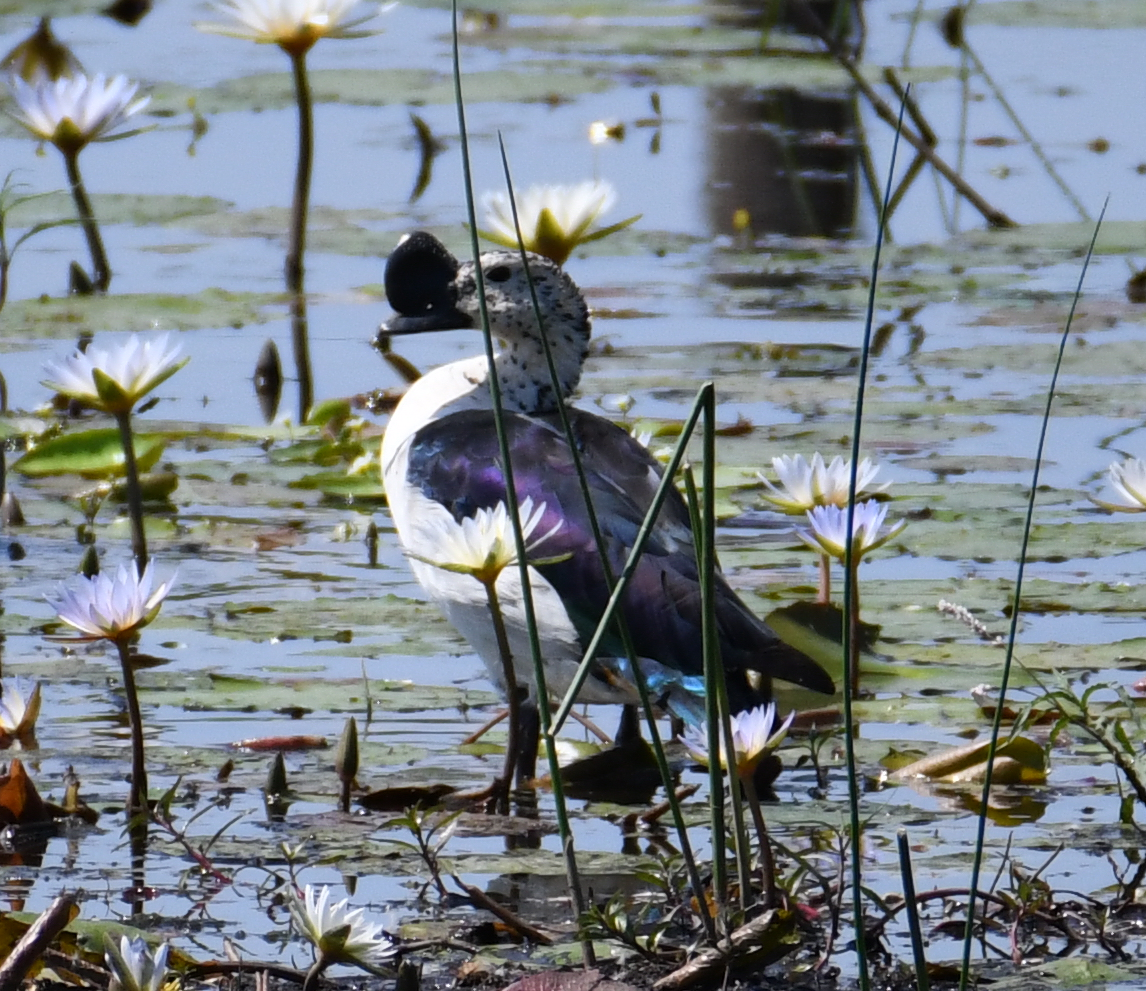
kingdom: Animalia
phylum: Chordata
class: Aves
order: Anseriformes
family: Anatidae
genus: Sarkidiornis
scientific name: Sarkidiornis melanotos
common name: Comb duck
